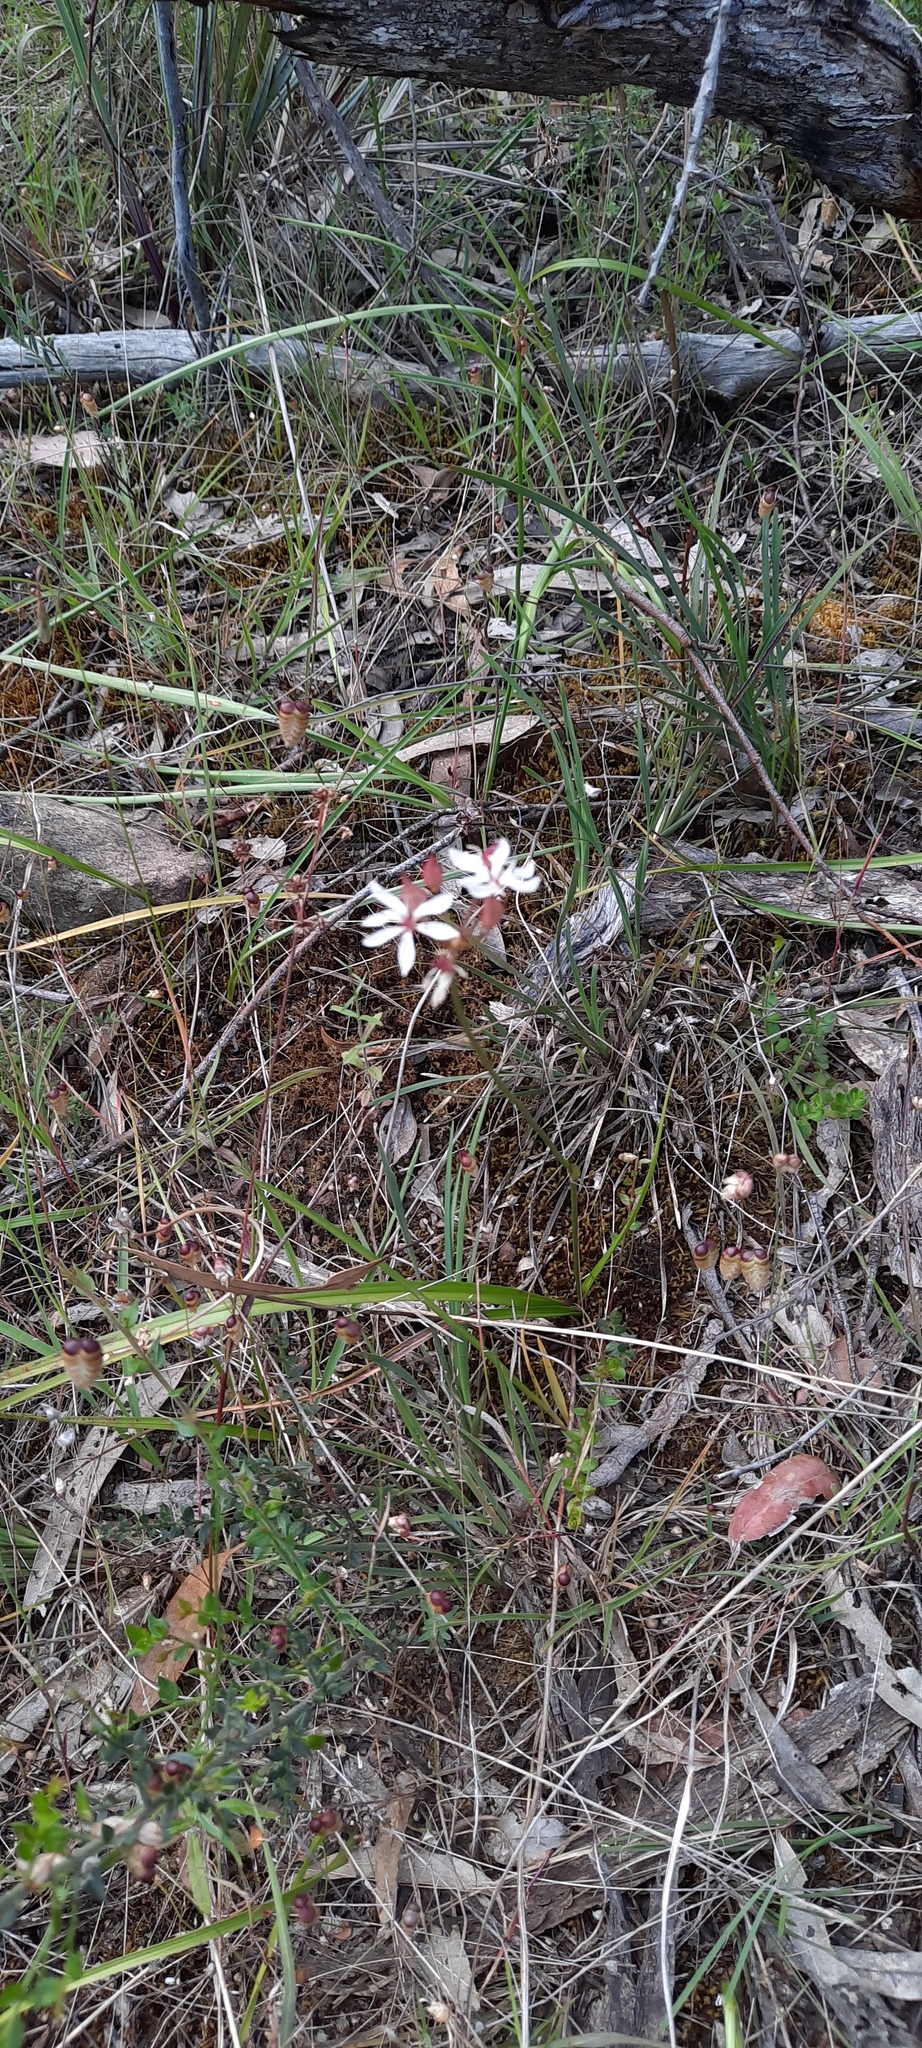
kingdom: Plantae
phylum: Tracheophyta
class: Liliopsida
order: Liliales
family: Colchicaceae
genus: Burchardia
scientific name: Burchardia umbellata
